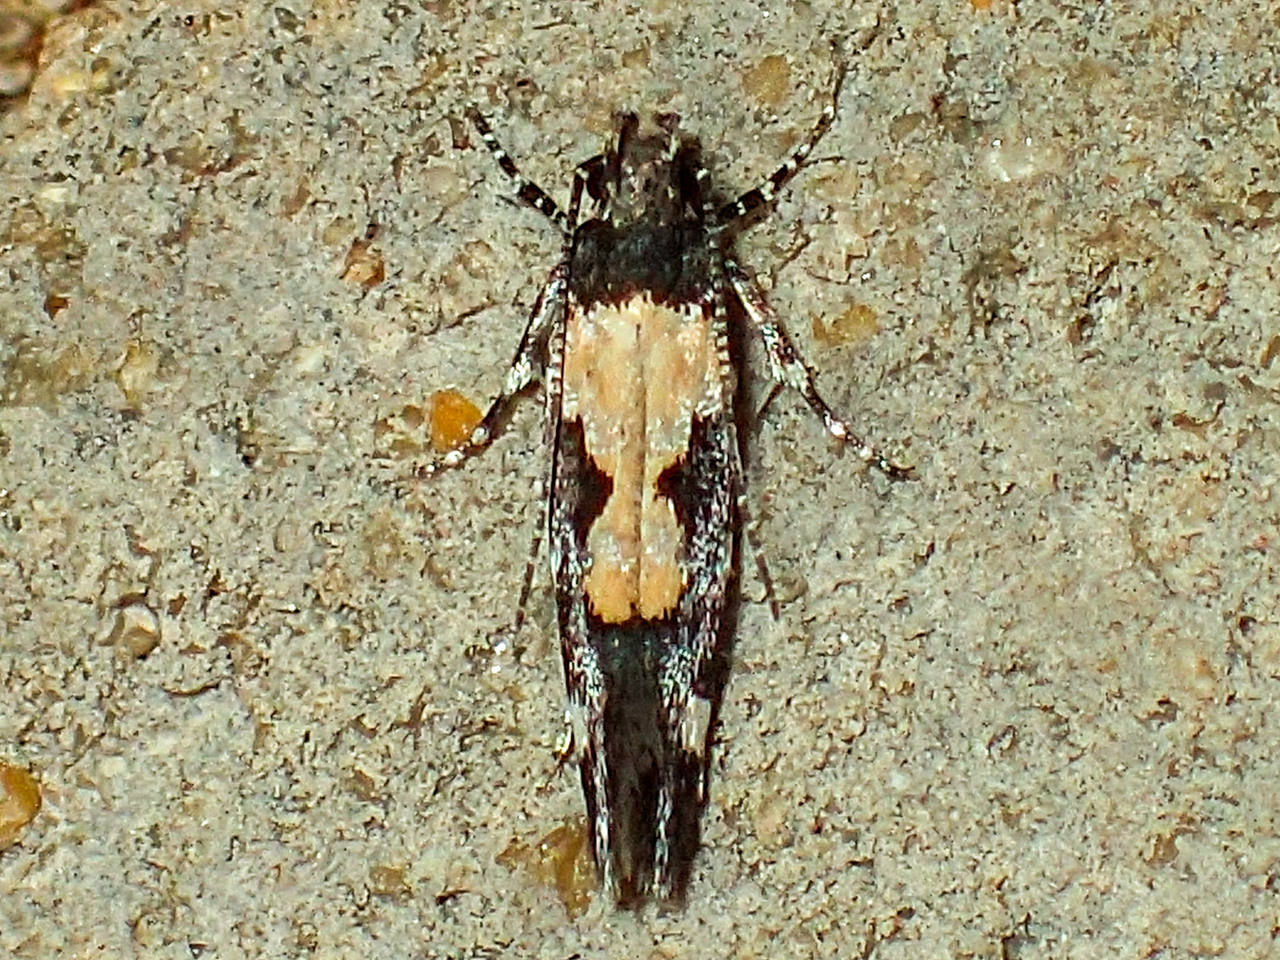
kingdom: Animalia
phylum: Arthropoda
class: Insecta
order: Lepidoptera
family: Gelechiidae
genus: Stegasta
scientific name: Stegasta bosqueella
